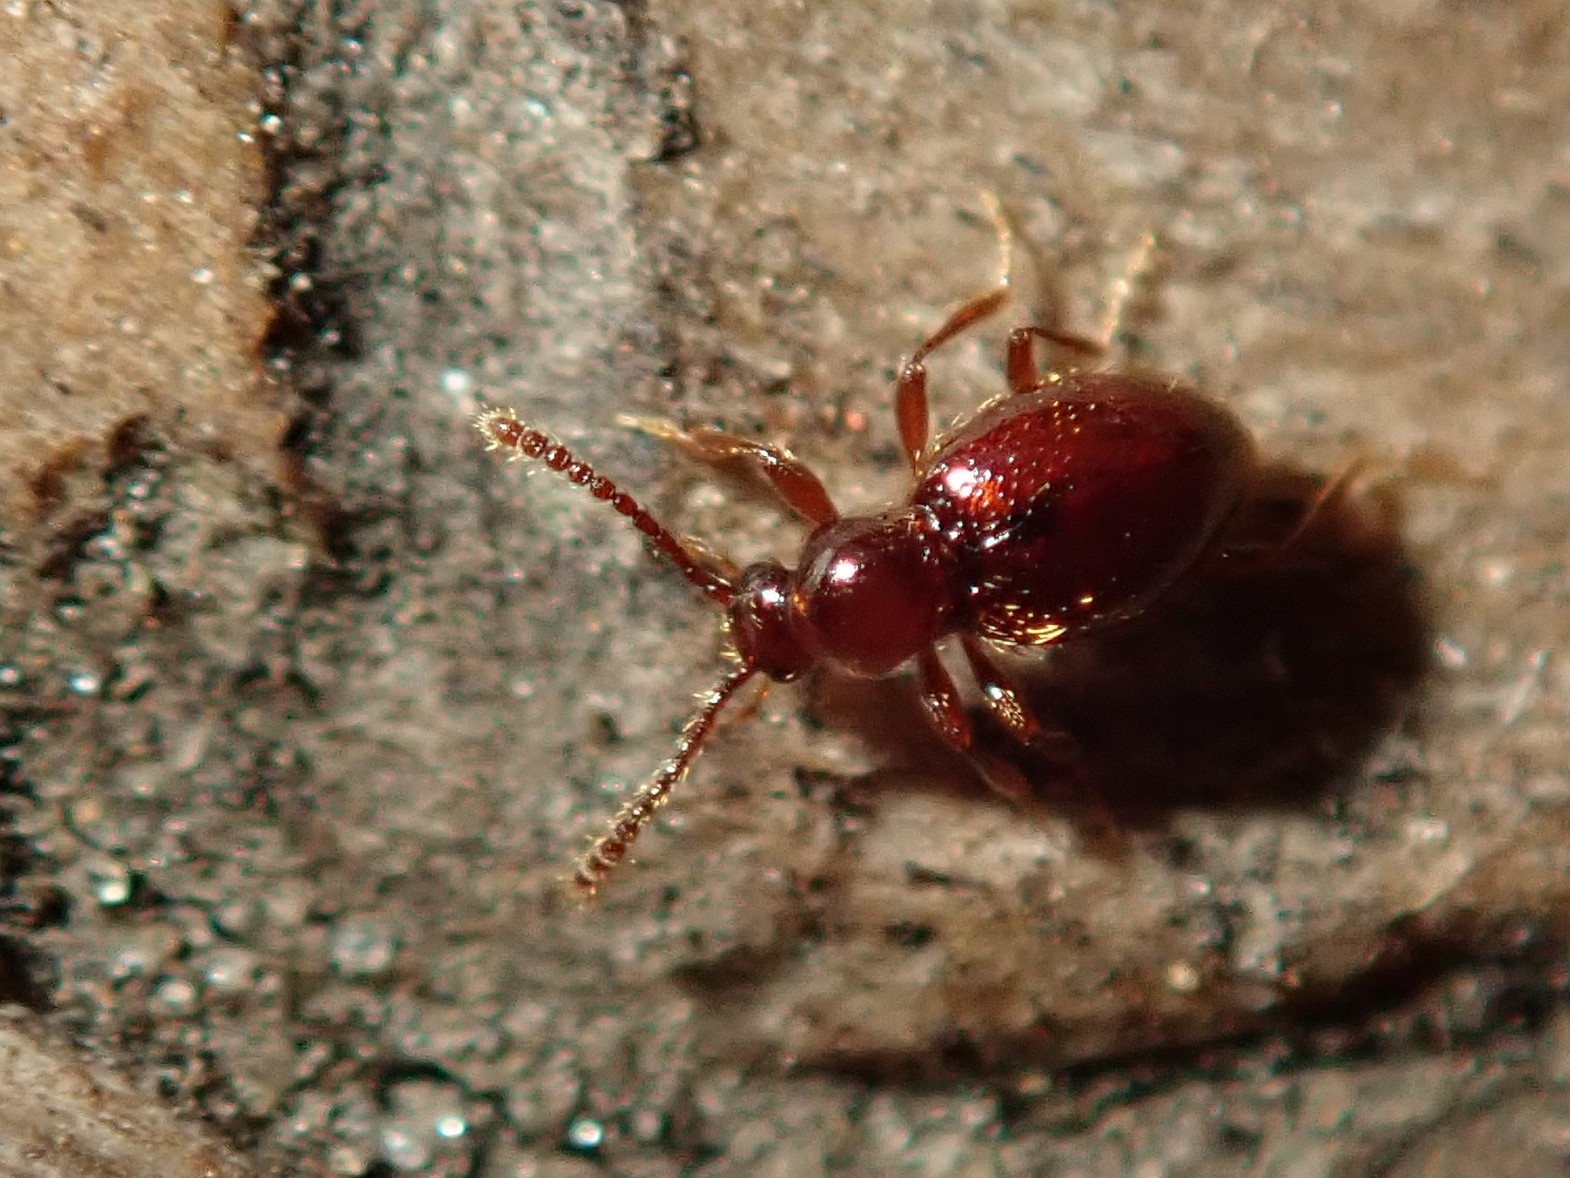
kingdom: Animalia
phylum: Arthropoda
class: Insecta
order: Coleoptera
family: Staphylinidae
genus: Stenichnus
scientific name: Stenichnus godarti
